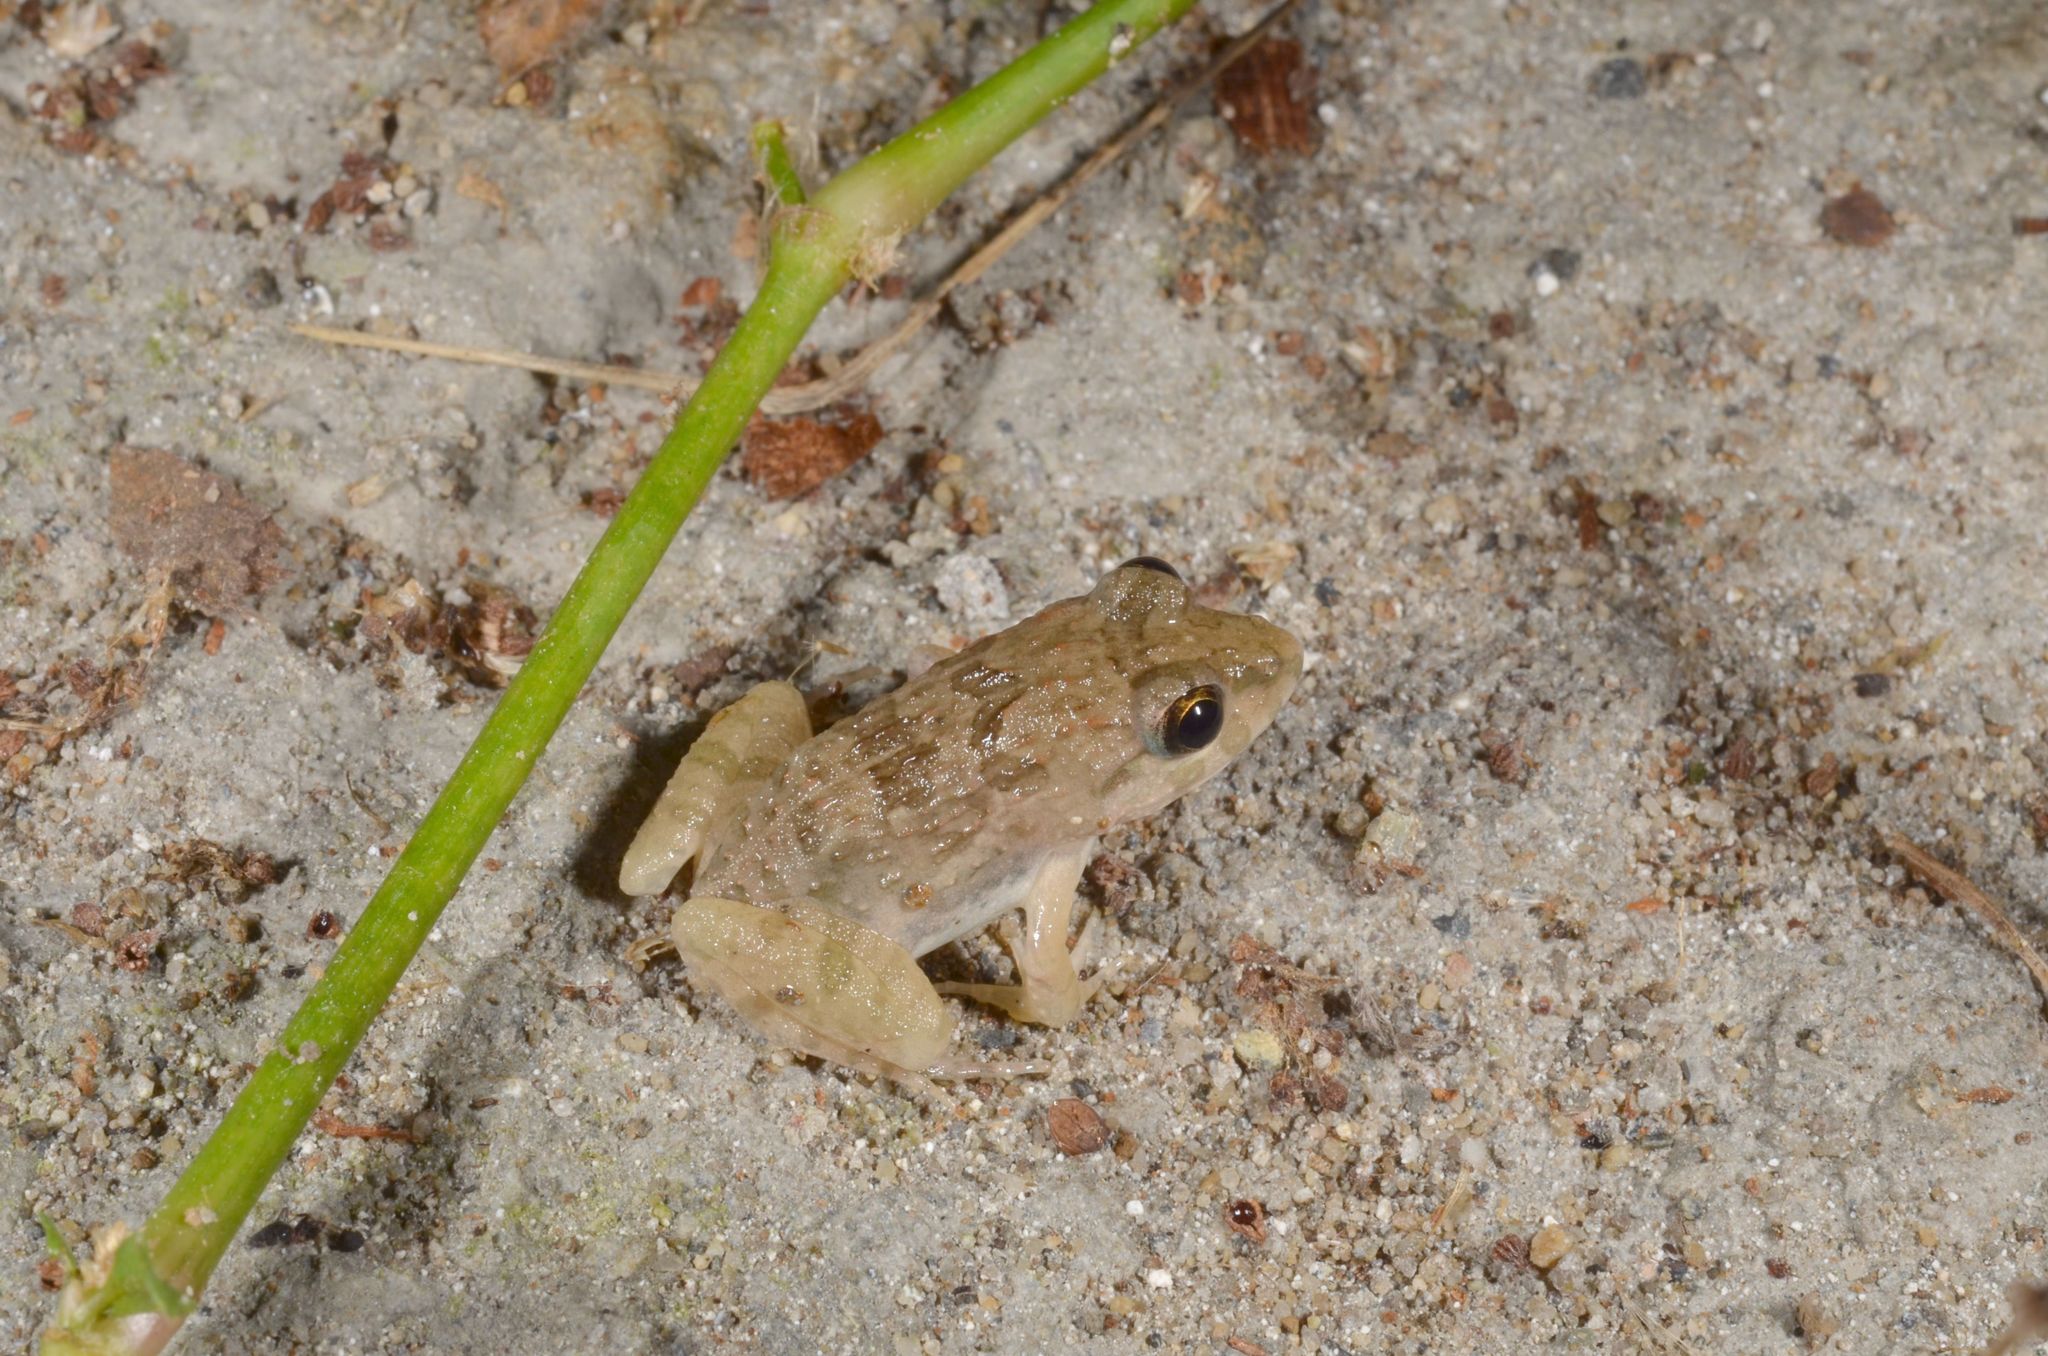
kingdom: Animalia
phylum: Chordata
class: Amphibia
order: Anura
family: Dicroglossidae
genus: Fejervarya
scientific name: Fejervarya limnocharis
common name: Asian grass frog/common pond frog/field frog/grass frog/indian rice frog
